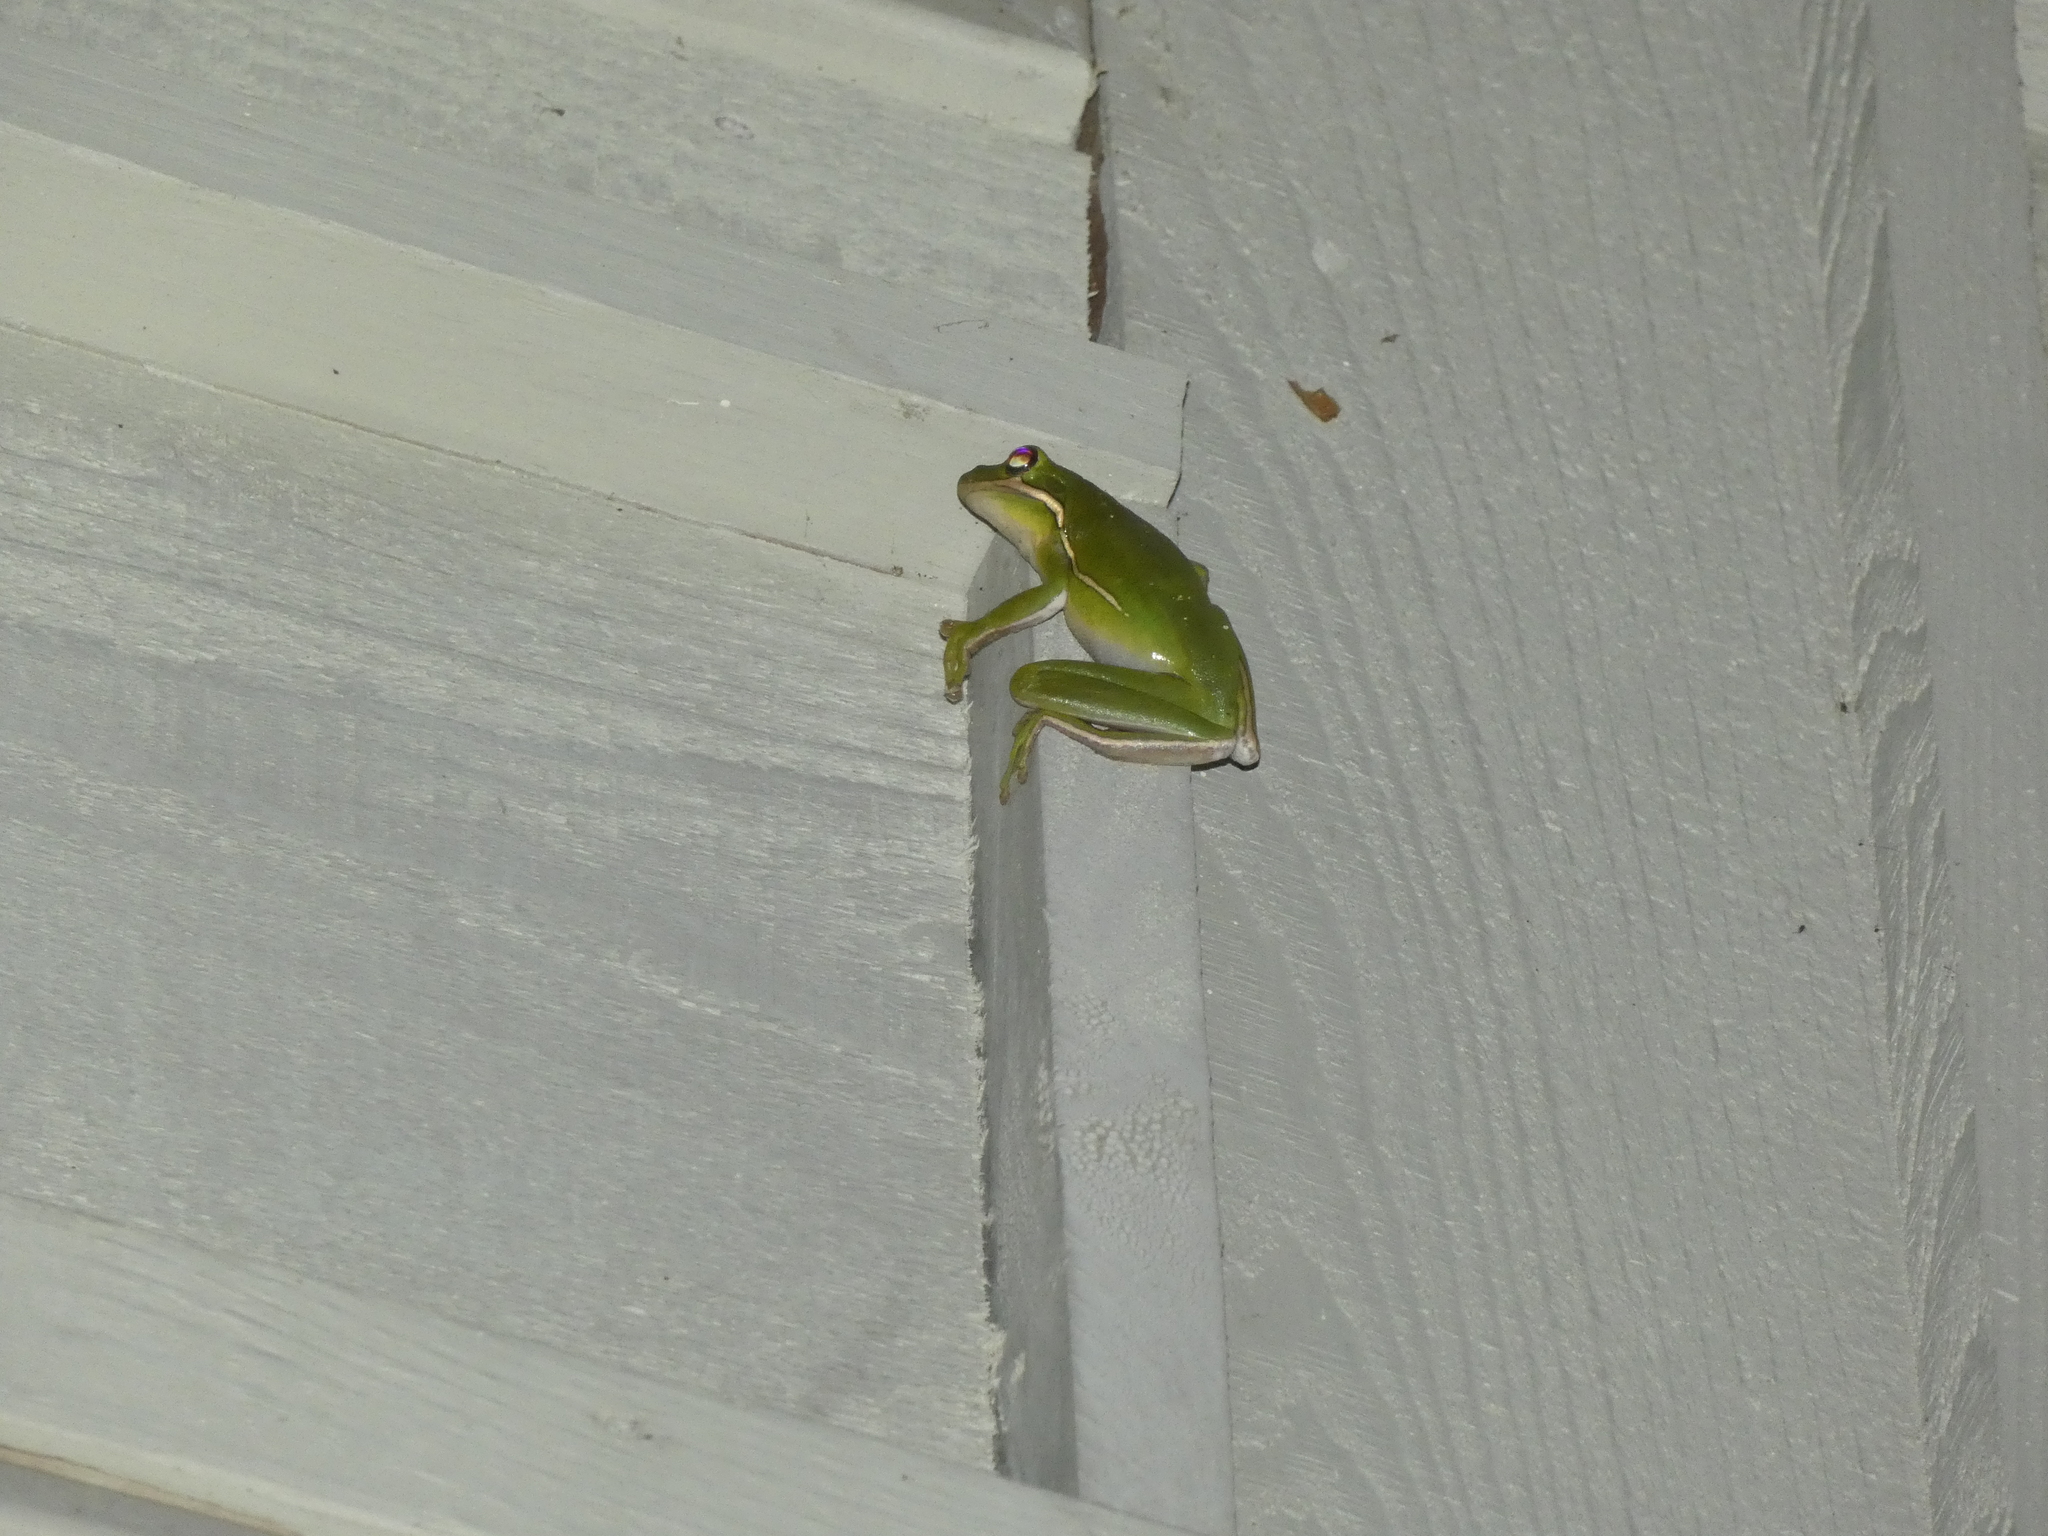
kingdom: Animalia
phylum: Chordata
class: Amphibia
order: Anura
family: Hylidae
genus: Dryophytes
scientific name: Dryophytes cinereus
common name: Green treefrog
